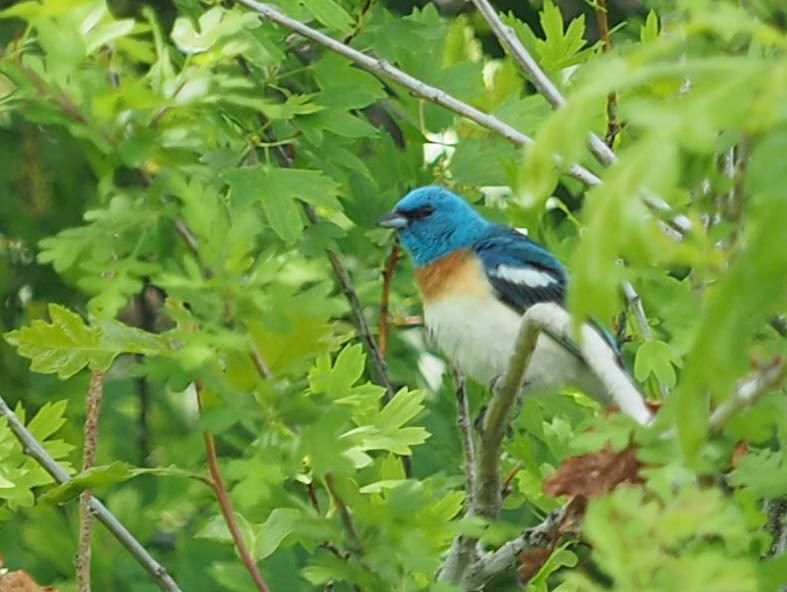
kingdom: Animalia
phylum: Chordata
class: Aves
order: Passeriformes
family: Cardinalidae
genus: Passerina
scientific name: Passerina amoena
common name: Lazuli bunting
